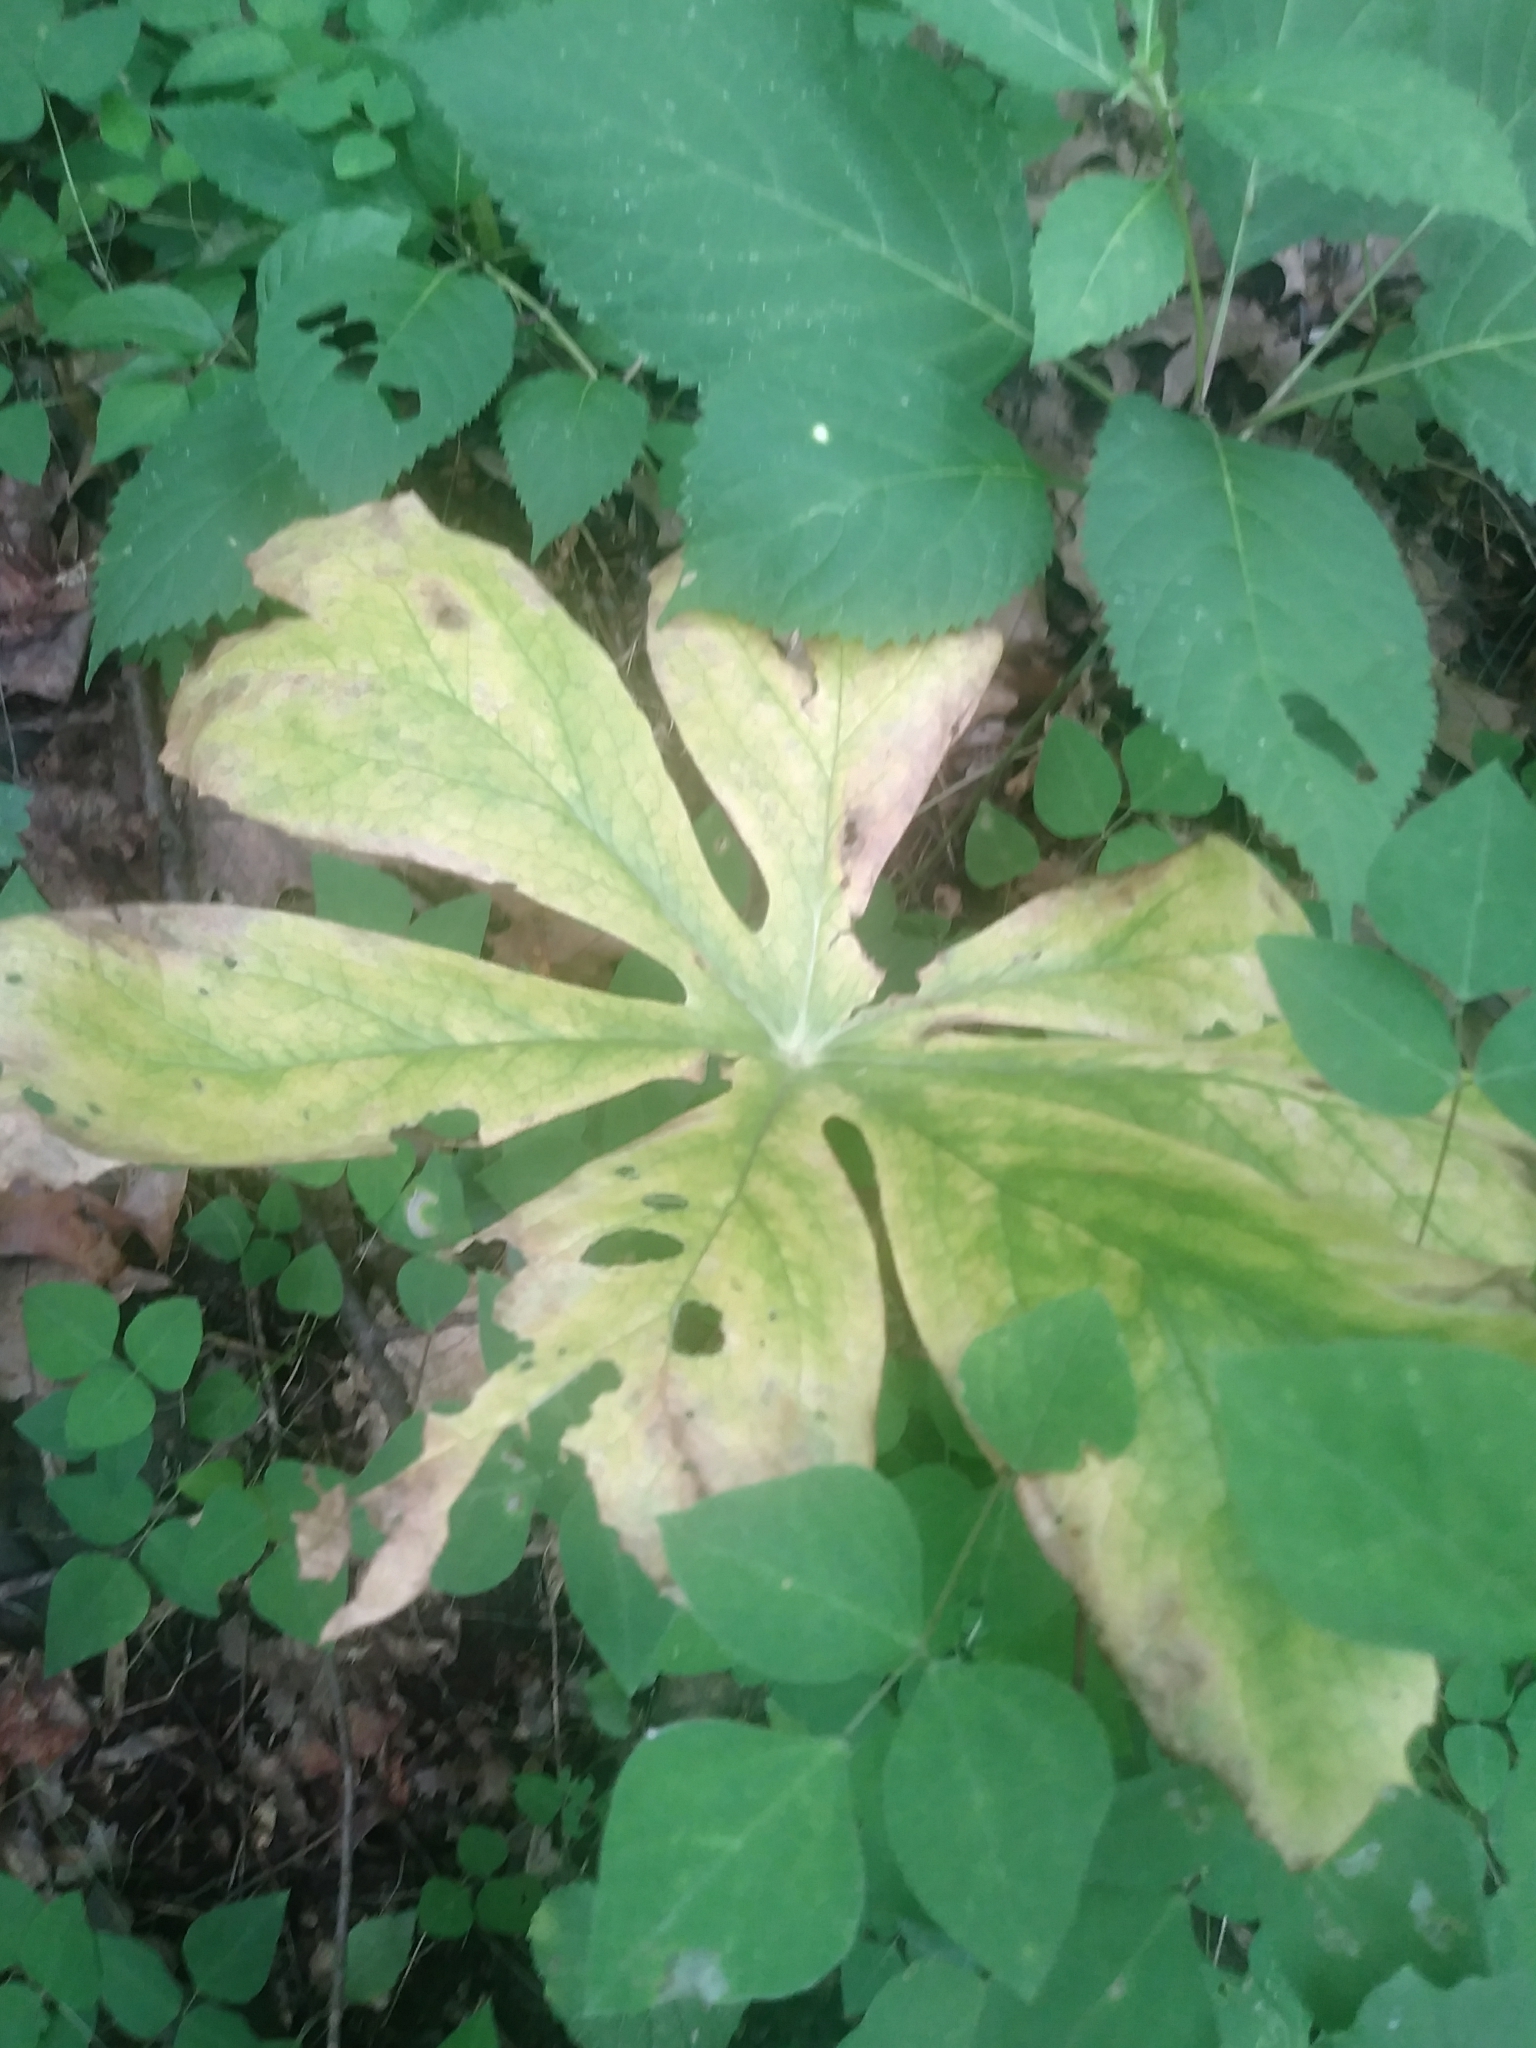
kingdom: Plantae
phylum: Tracheophyta
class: Magnoliopsida
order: Ranunculales
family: Berberidaceae
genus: Podophyllum
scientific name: Podophyllum peltatum
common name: Wild mandrake
